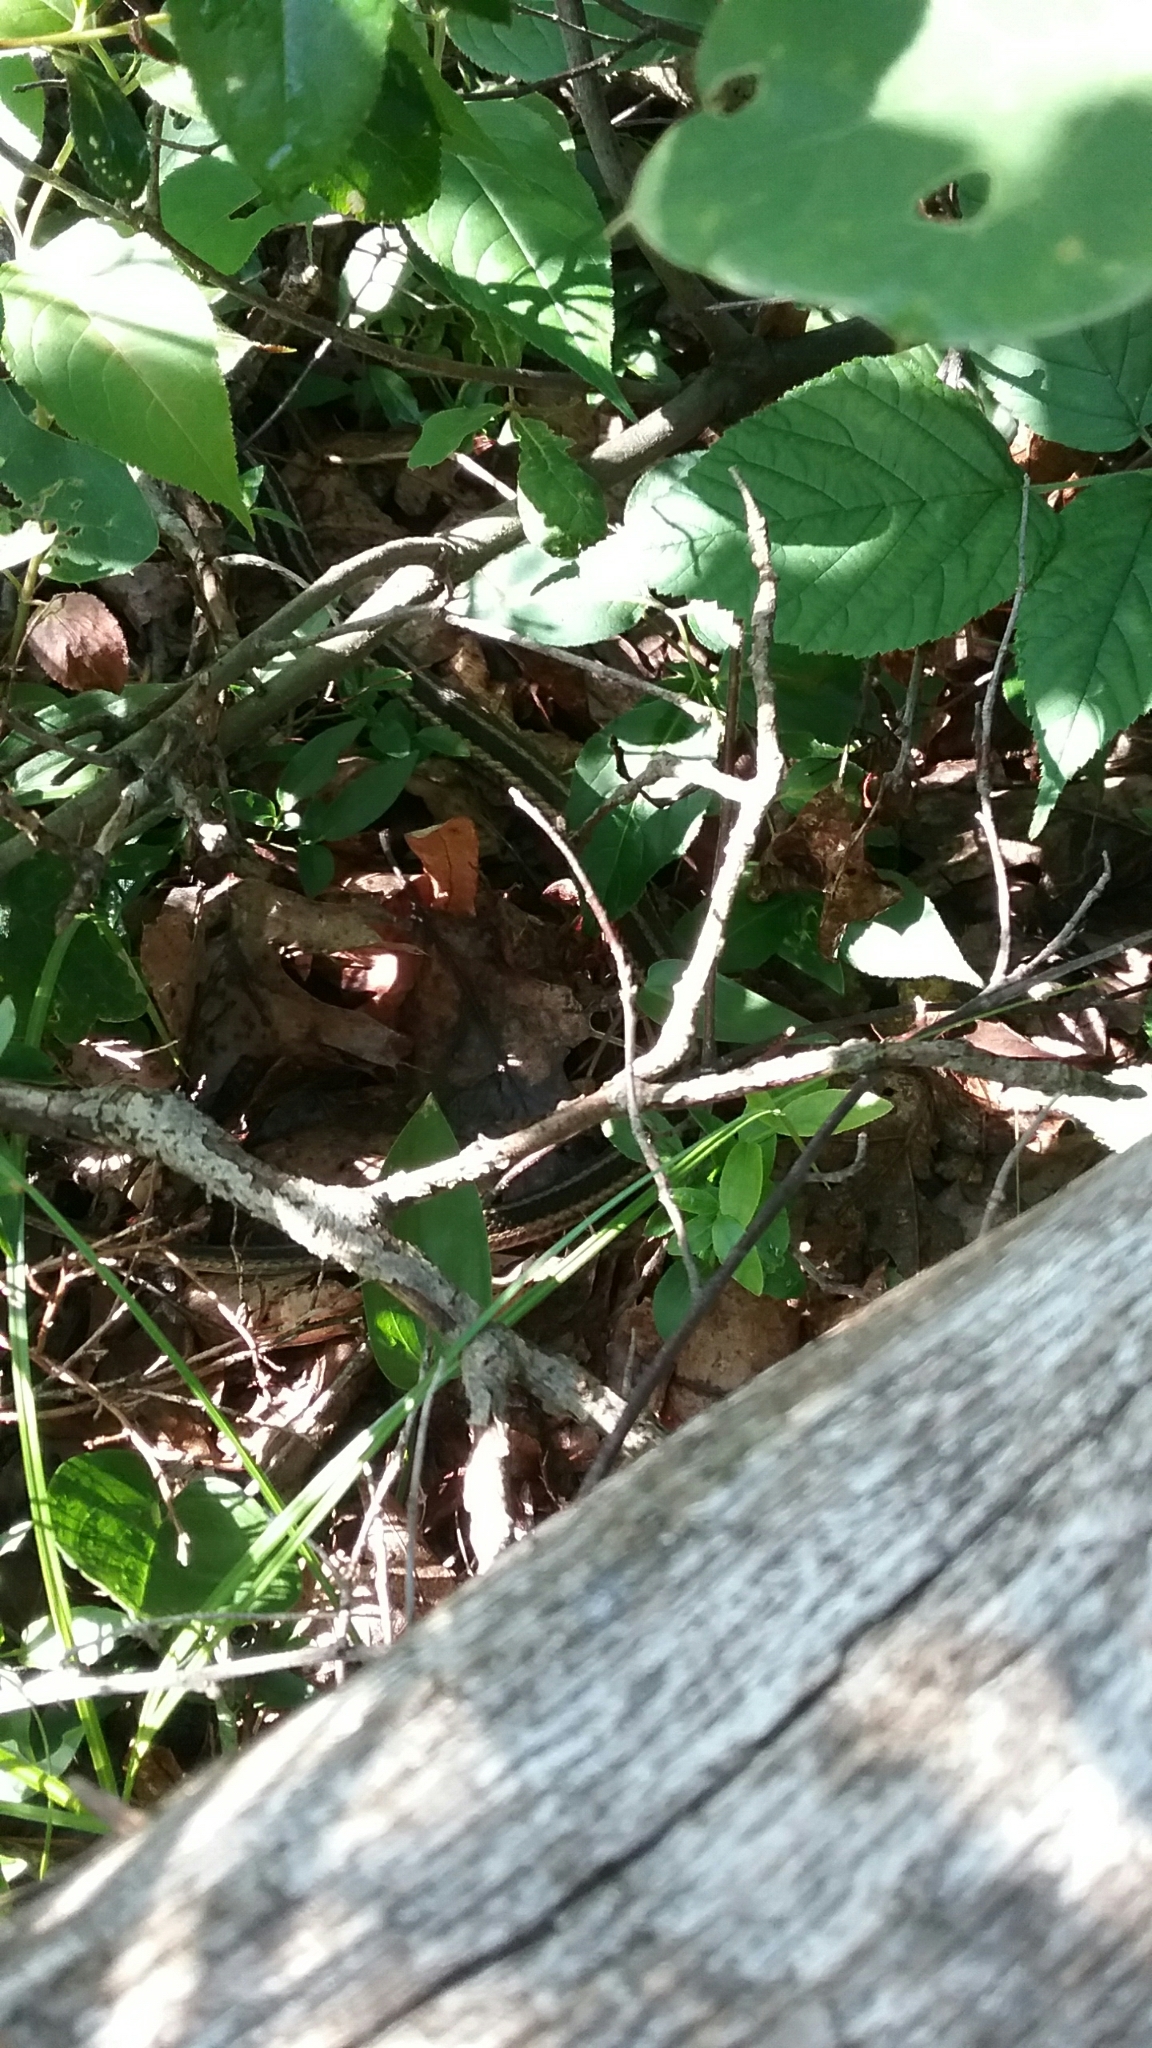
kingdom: Animalia
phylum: Chordata
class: Squamata
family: Colubridae
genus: Thamnophis
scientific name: Thamnophis sirtalis
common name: Common garter snake
